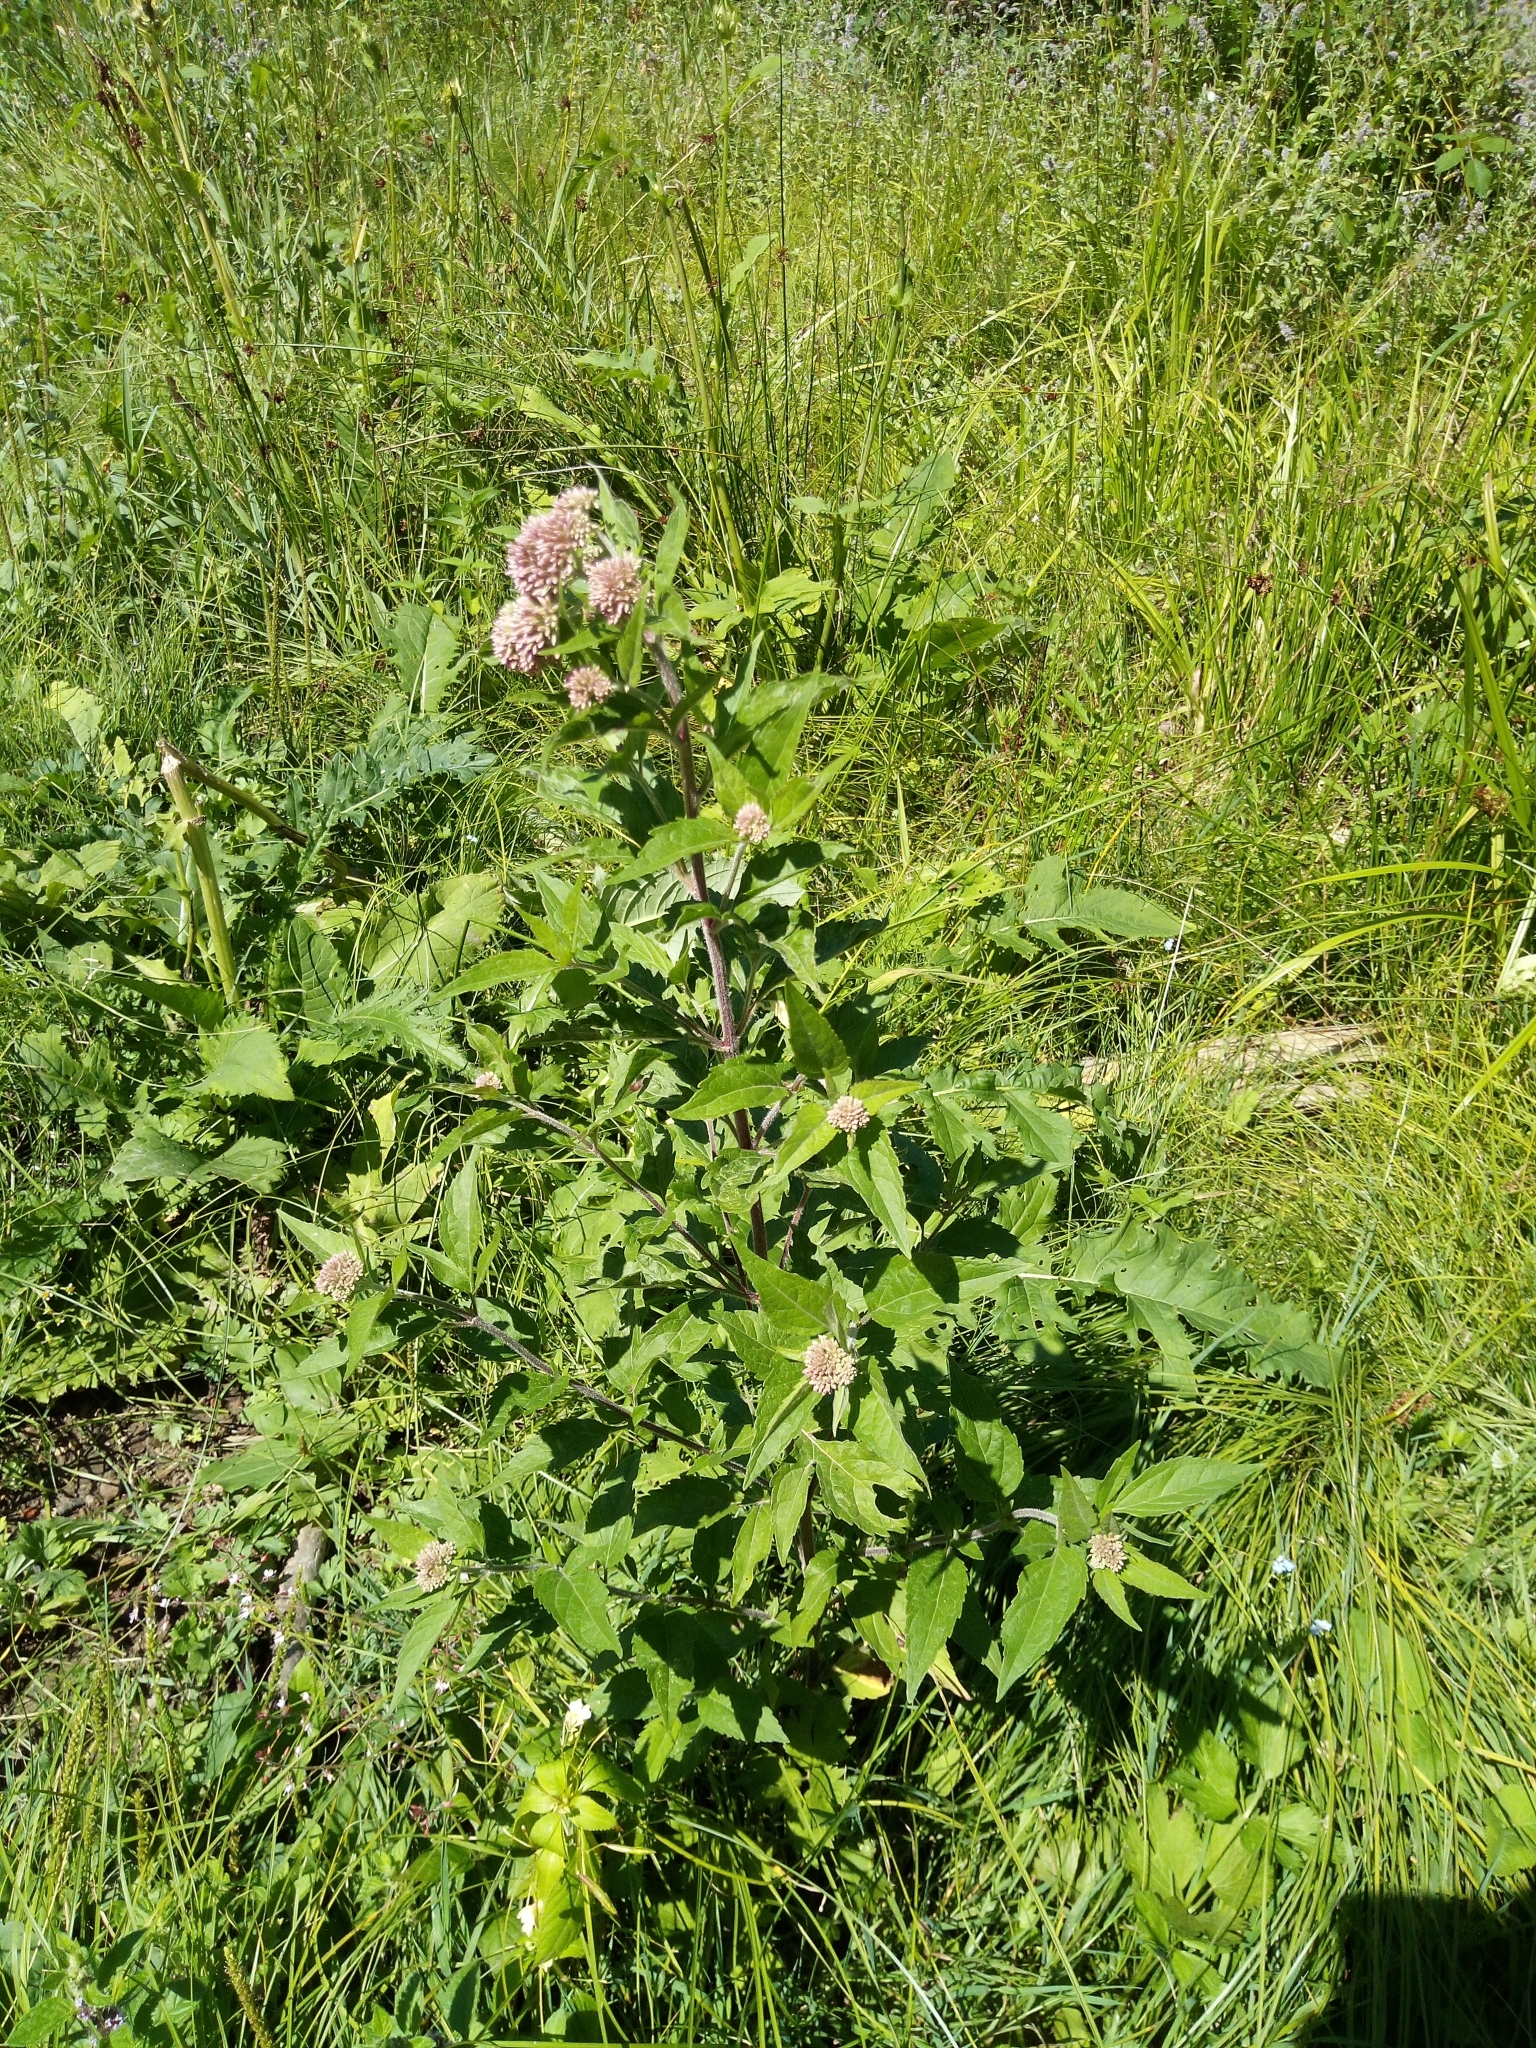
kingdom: Plantae
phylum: Tracheophyta
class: Magnoliopsida
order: Asterales
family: Asteraceae
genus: Eupatorium
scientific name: Eupatorium cannabinum
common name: Hemp-agrimony
